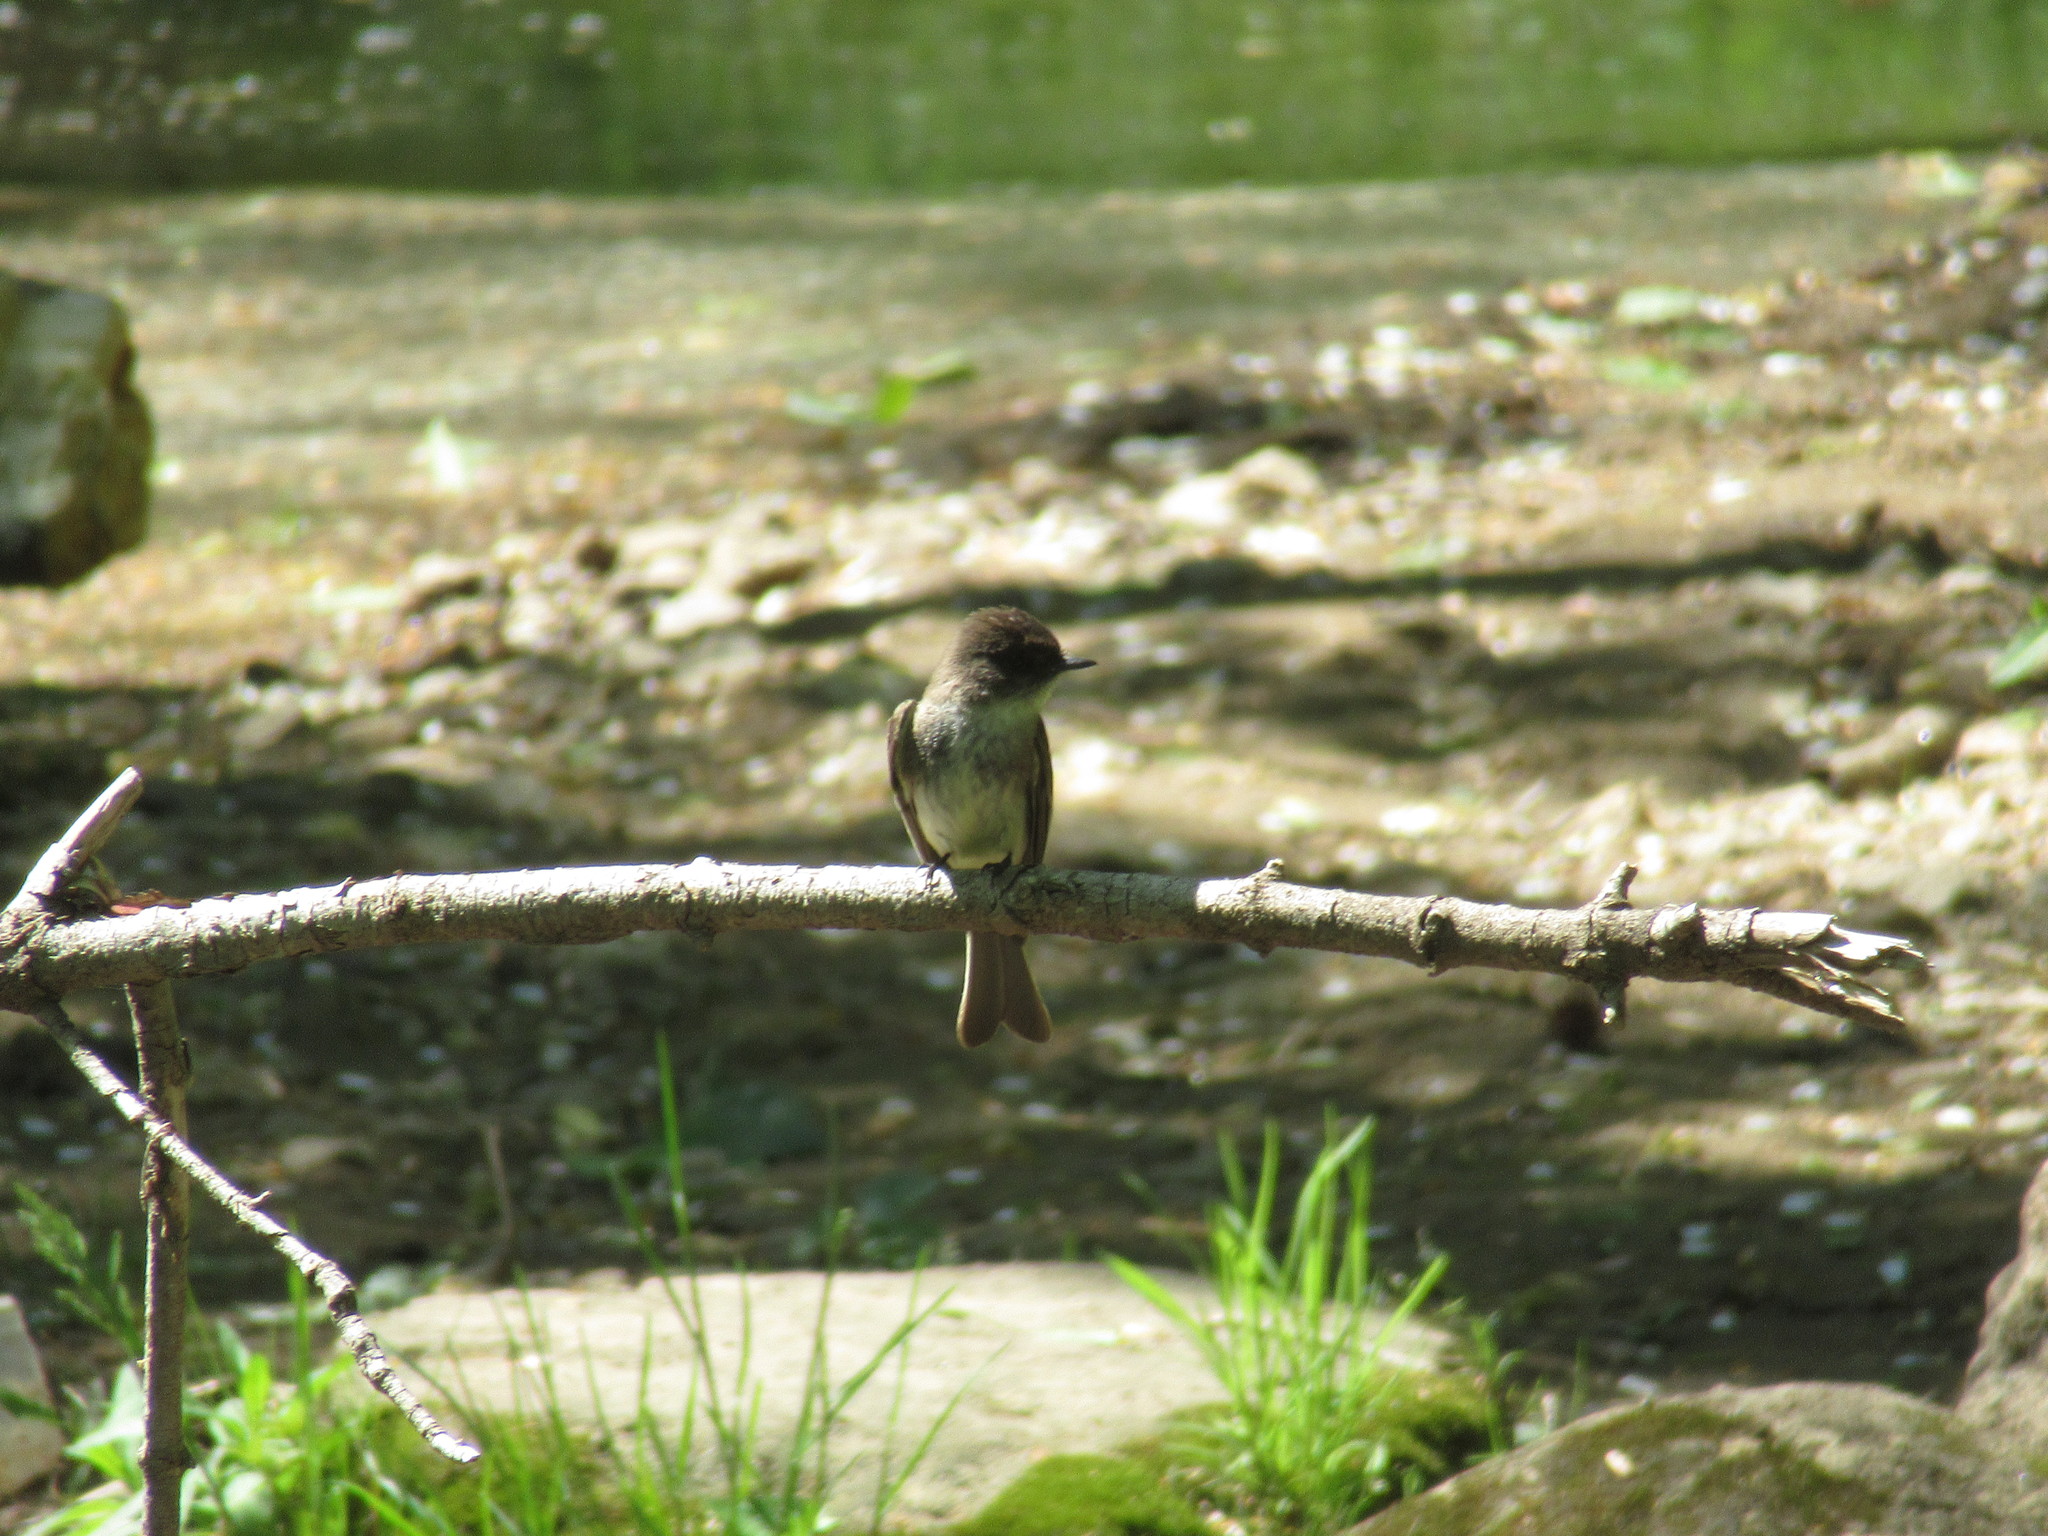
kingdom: Animalia
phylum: Chordata
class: Aves
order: Passeriformes
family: Tyrannidae
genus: Sayornis
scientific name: Sayornis phoebe
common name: Eastern phoebe
